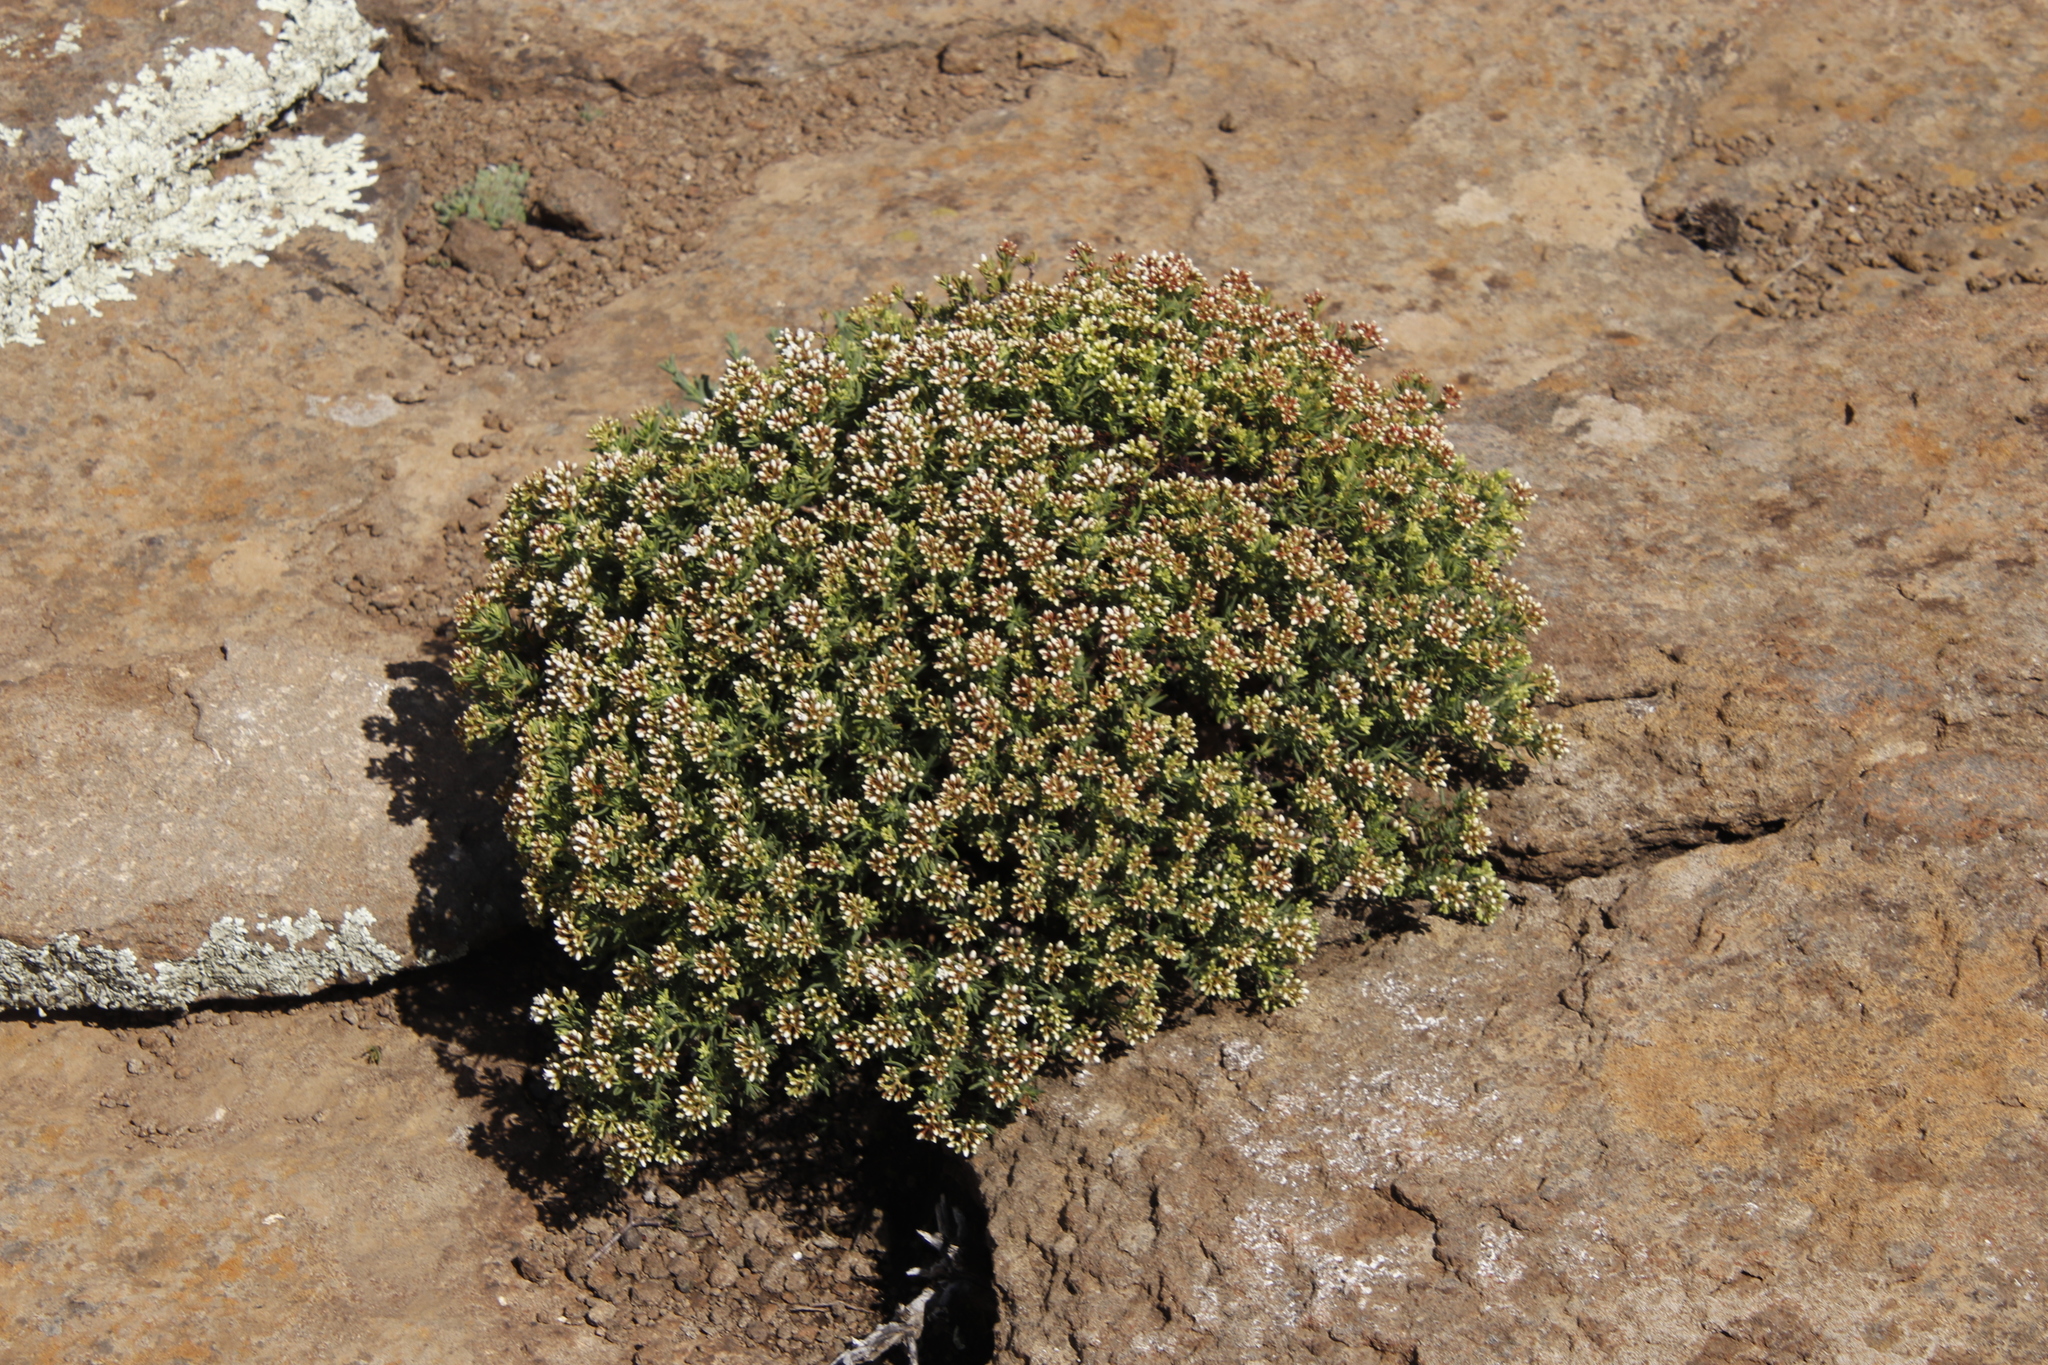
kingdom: Plantae
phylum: Tracheophyta
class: Magnoliopsida
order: Saxifragales
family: Crassulaceae
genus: Crassula
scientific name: Crassula sarcocaulis
